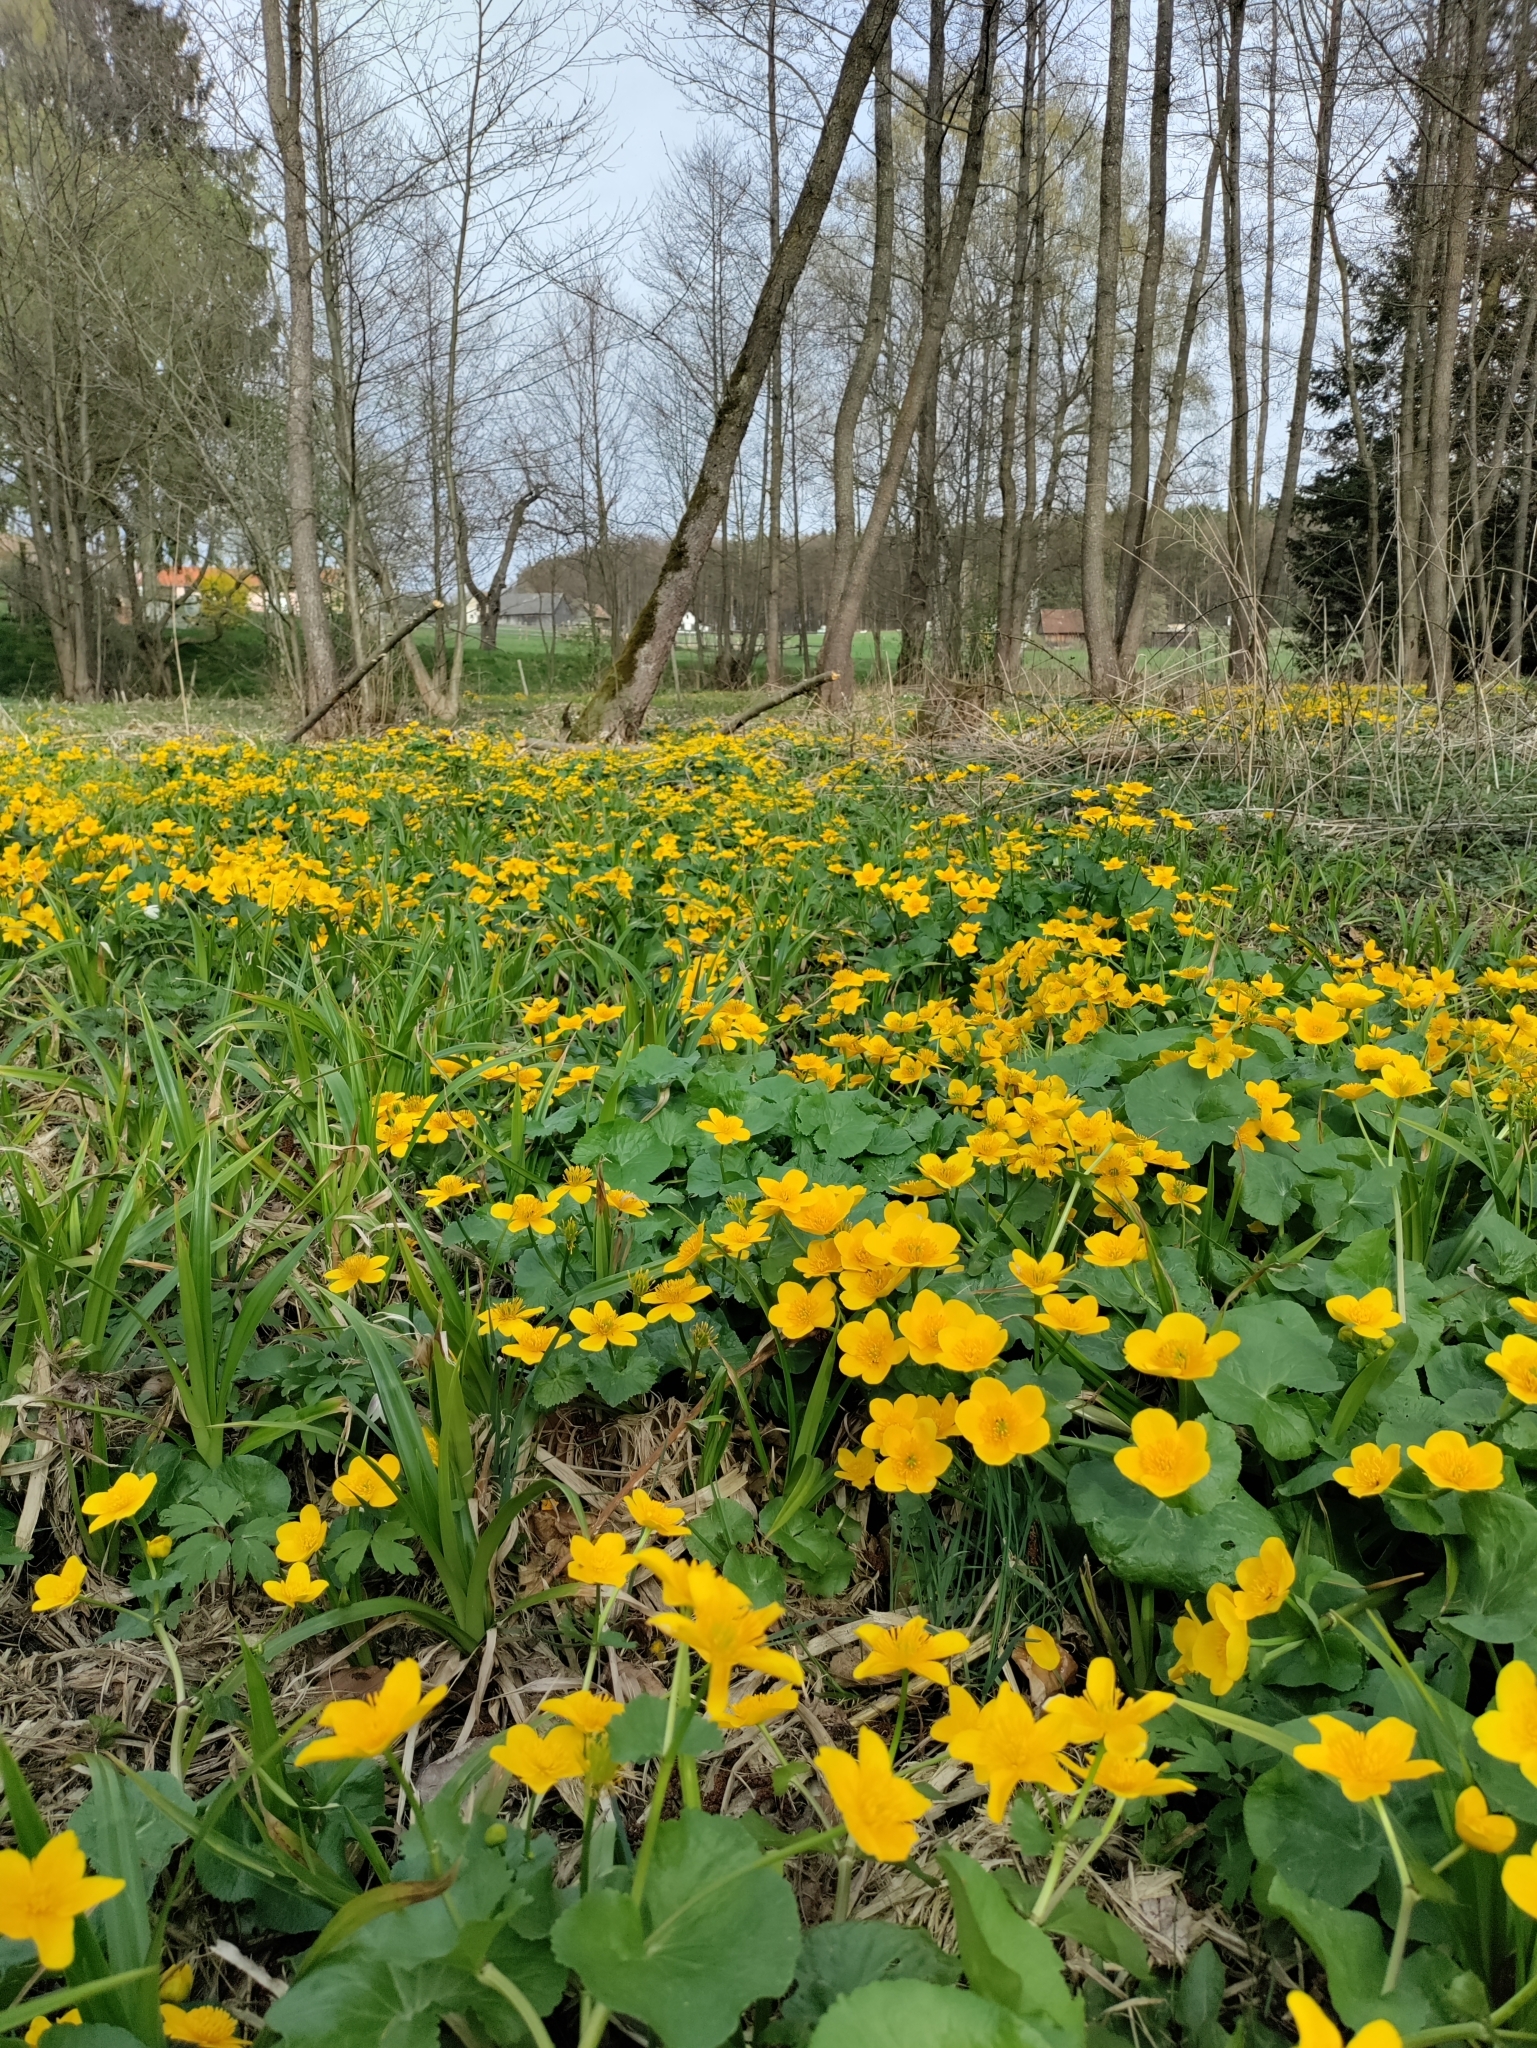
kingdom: Plantae
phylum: Tracheophyta
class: Magnoliopsida
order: Ranunculales
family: Ranunculaceae
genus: Caltha
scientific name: Caltha palustris
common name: Marsh marigold
